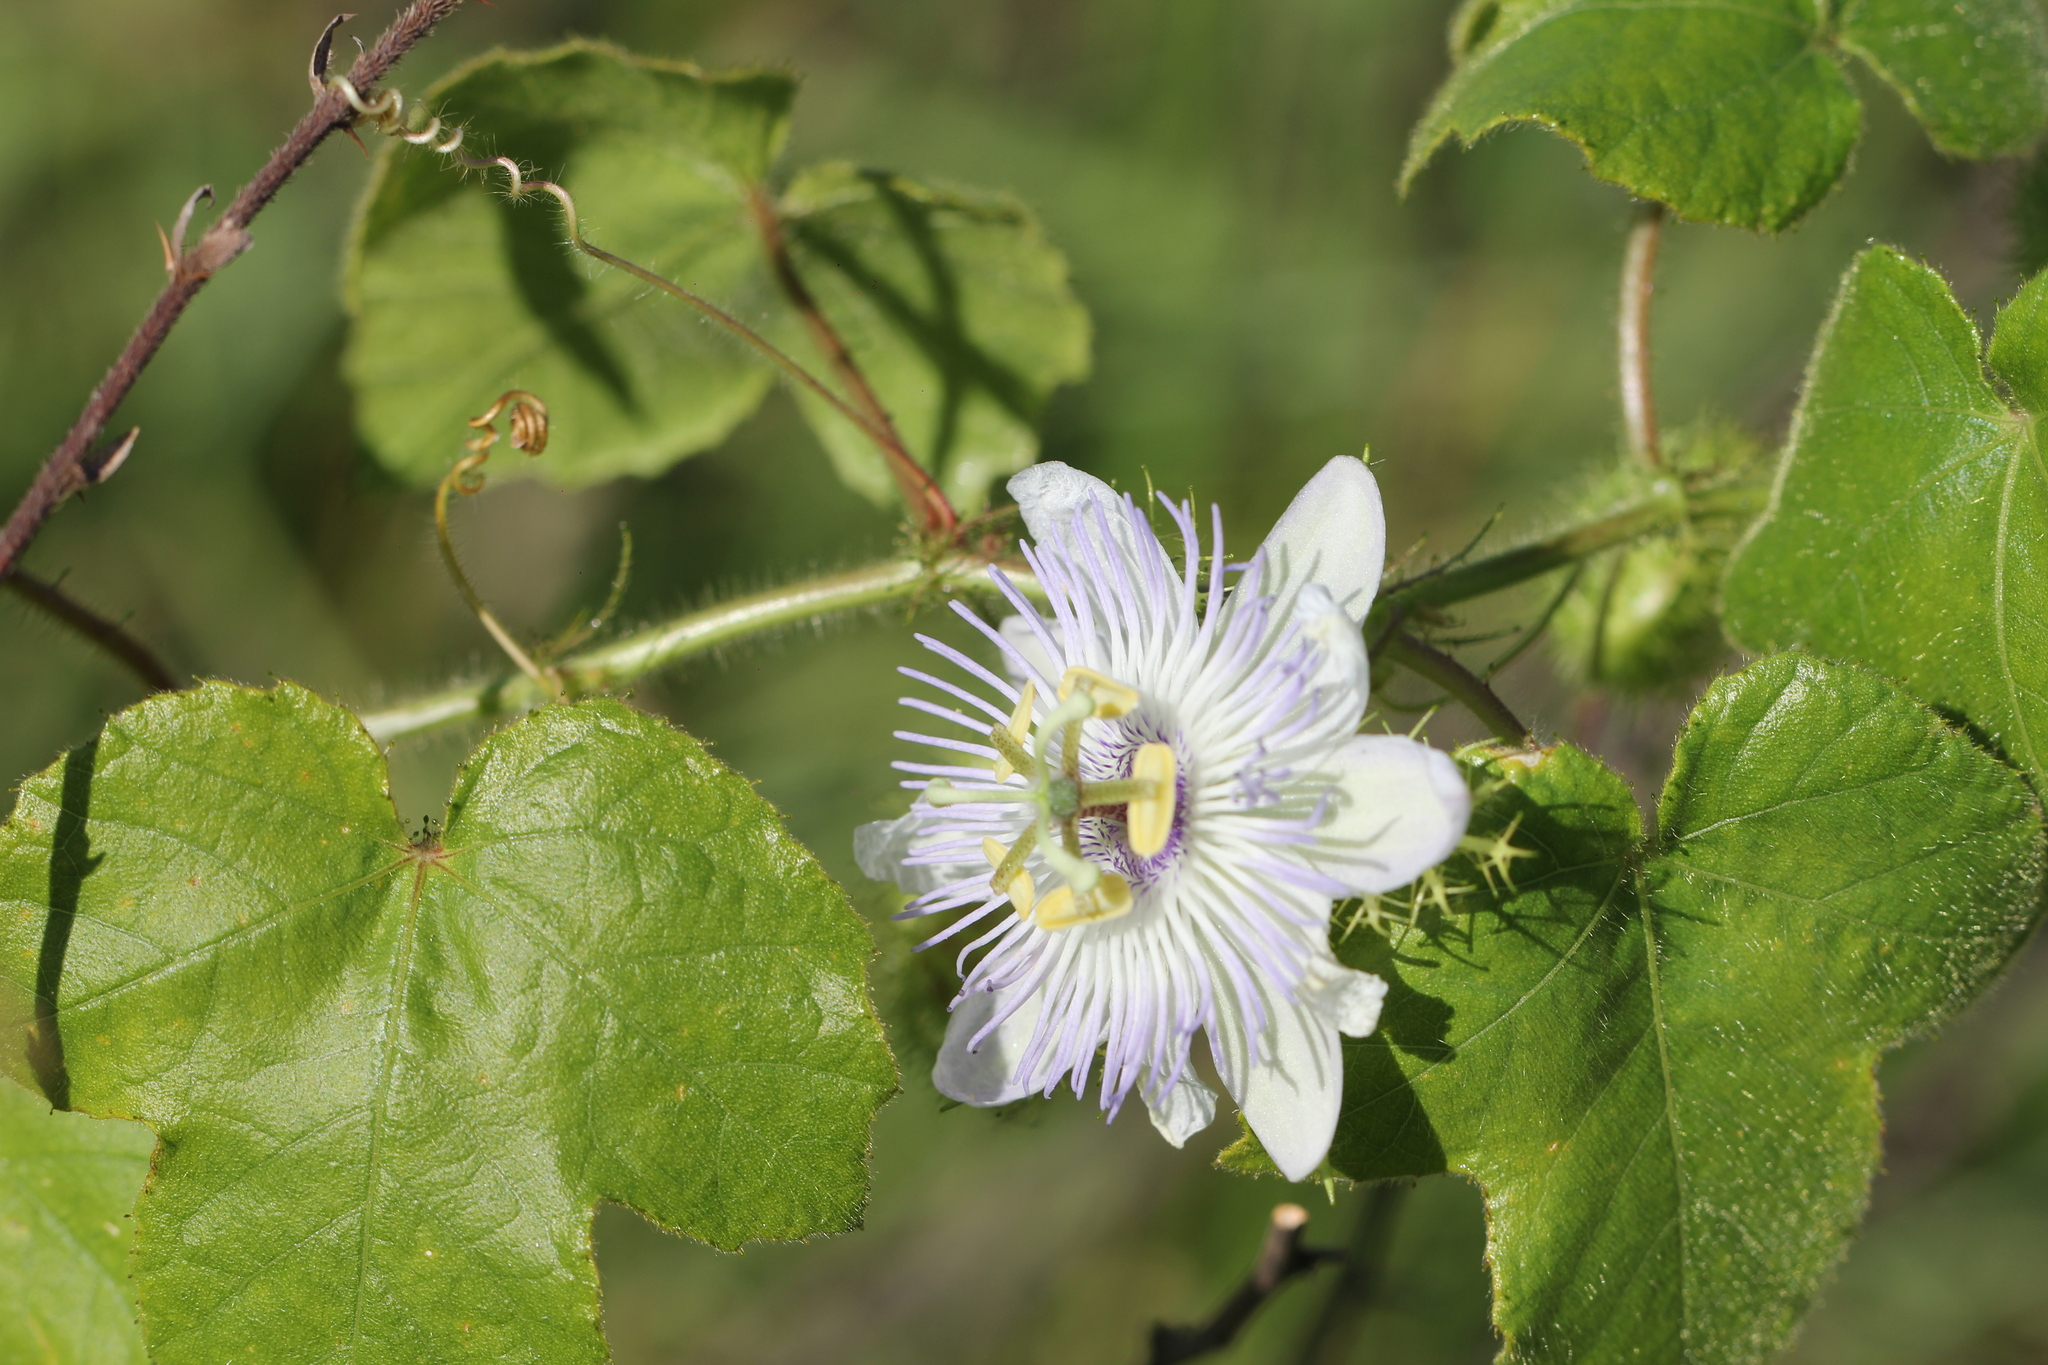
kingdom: Plantae
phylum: Tracheophyta
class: Magnoliopsida
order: Malpighiales
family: Passifloraceae
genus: Passiflora
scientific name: Passiflora foetida
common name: Fetid passionflower
